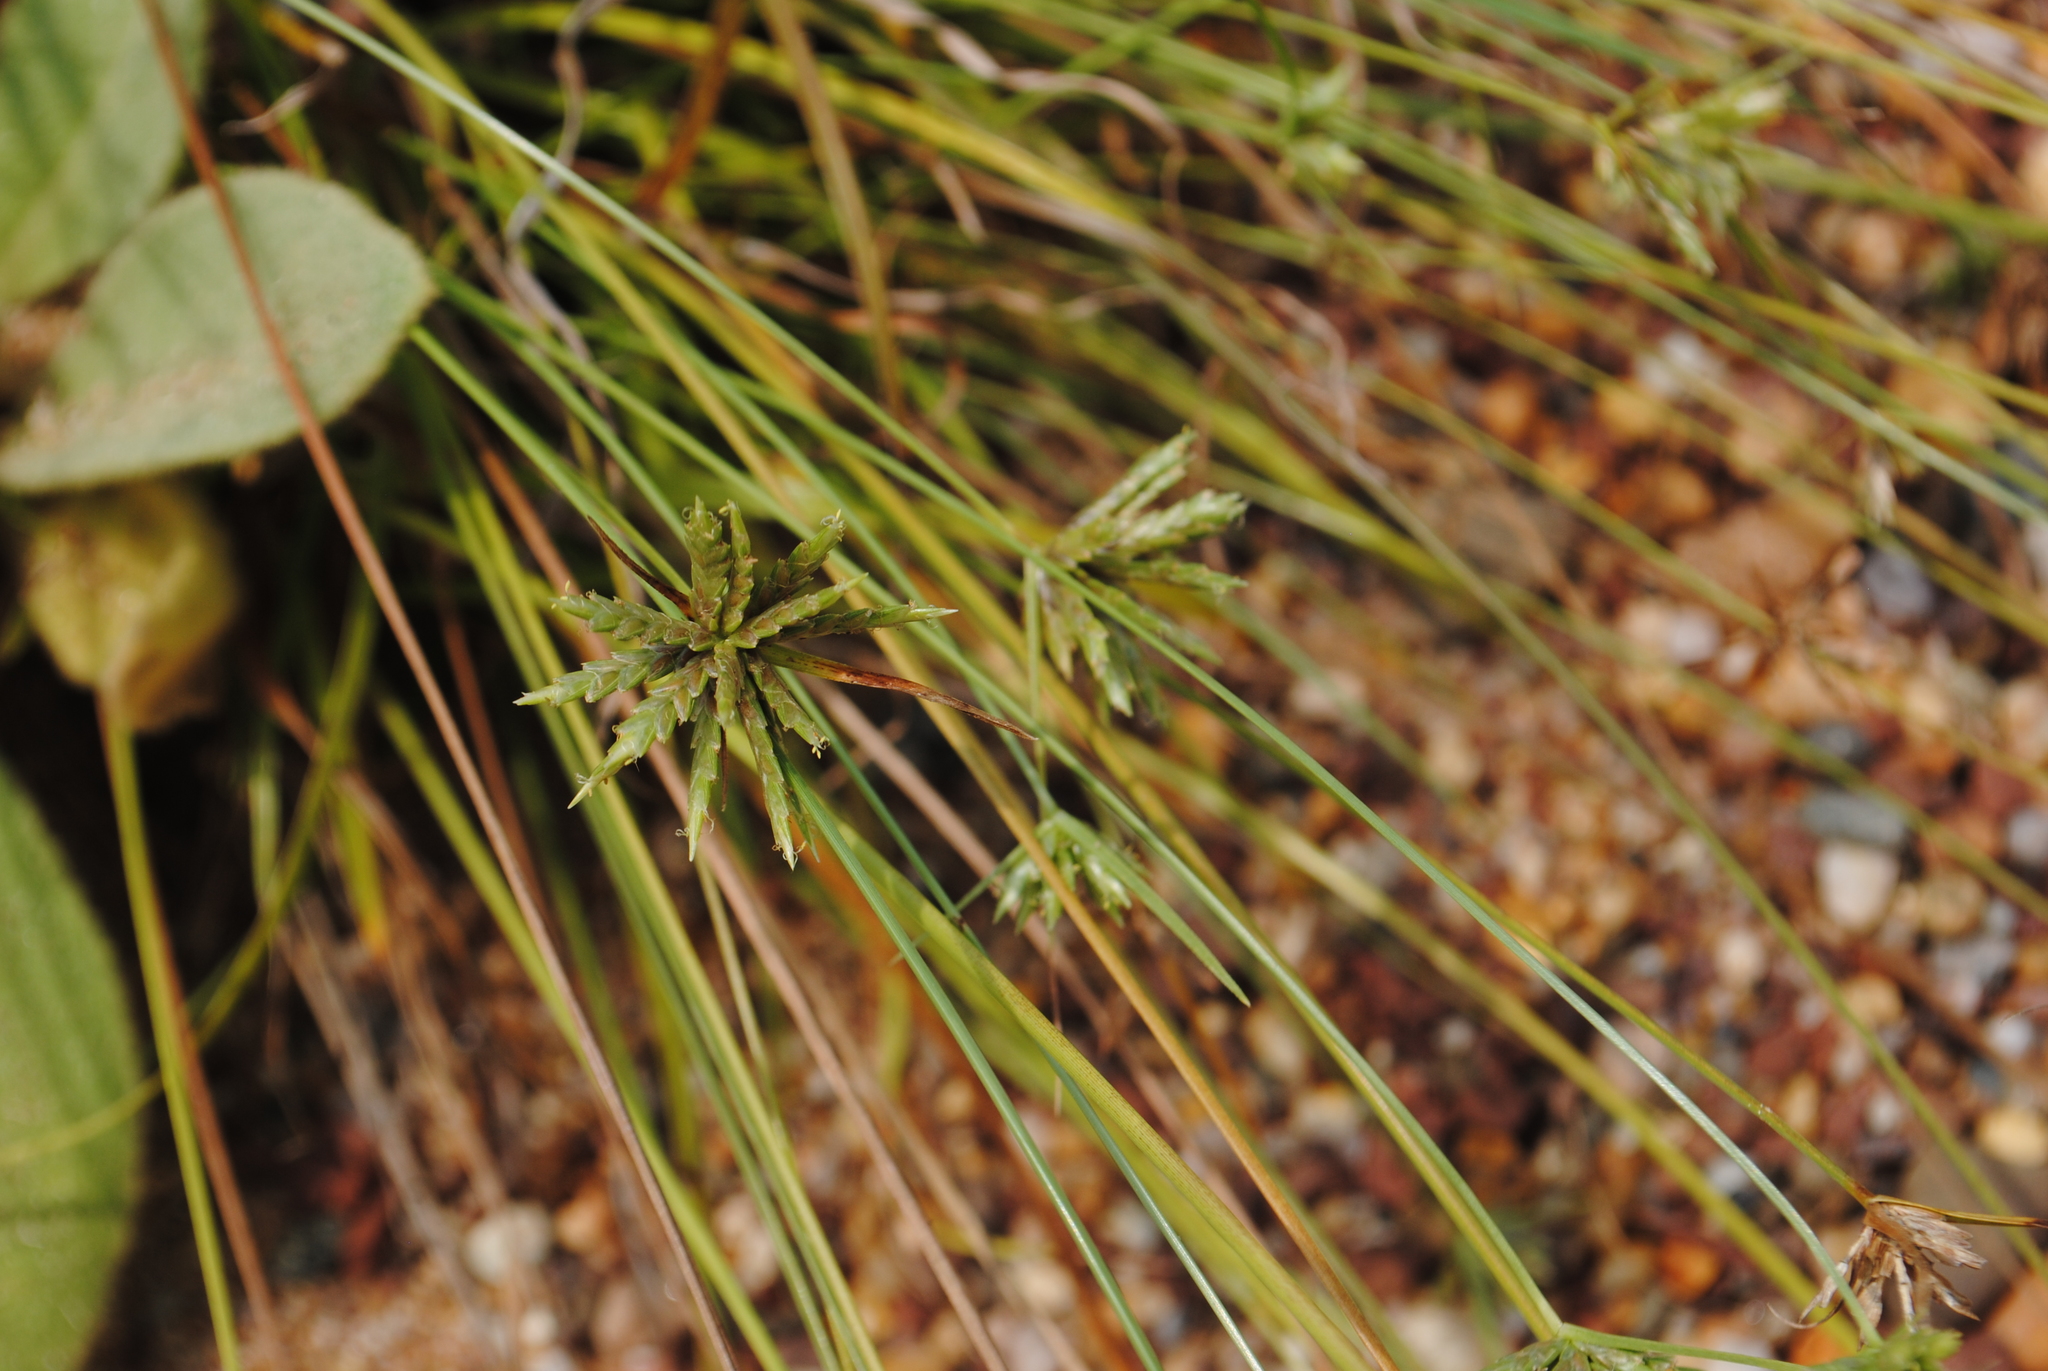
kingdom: Plantae
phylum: Tracheophyta
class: Liliopsida
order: Poales
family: Cyperaceae
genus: Cyperus
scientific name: Cyperus lupulinus
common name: Great plains flatsedge
